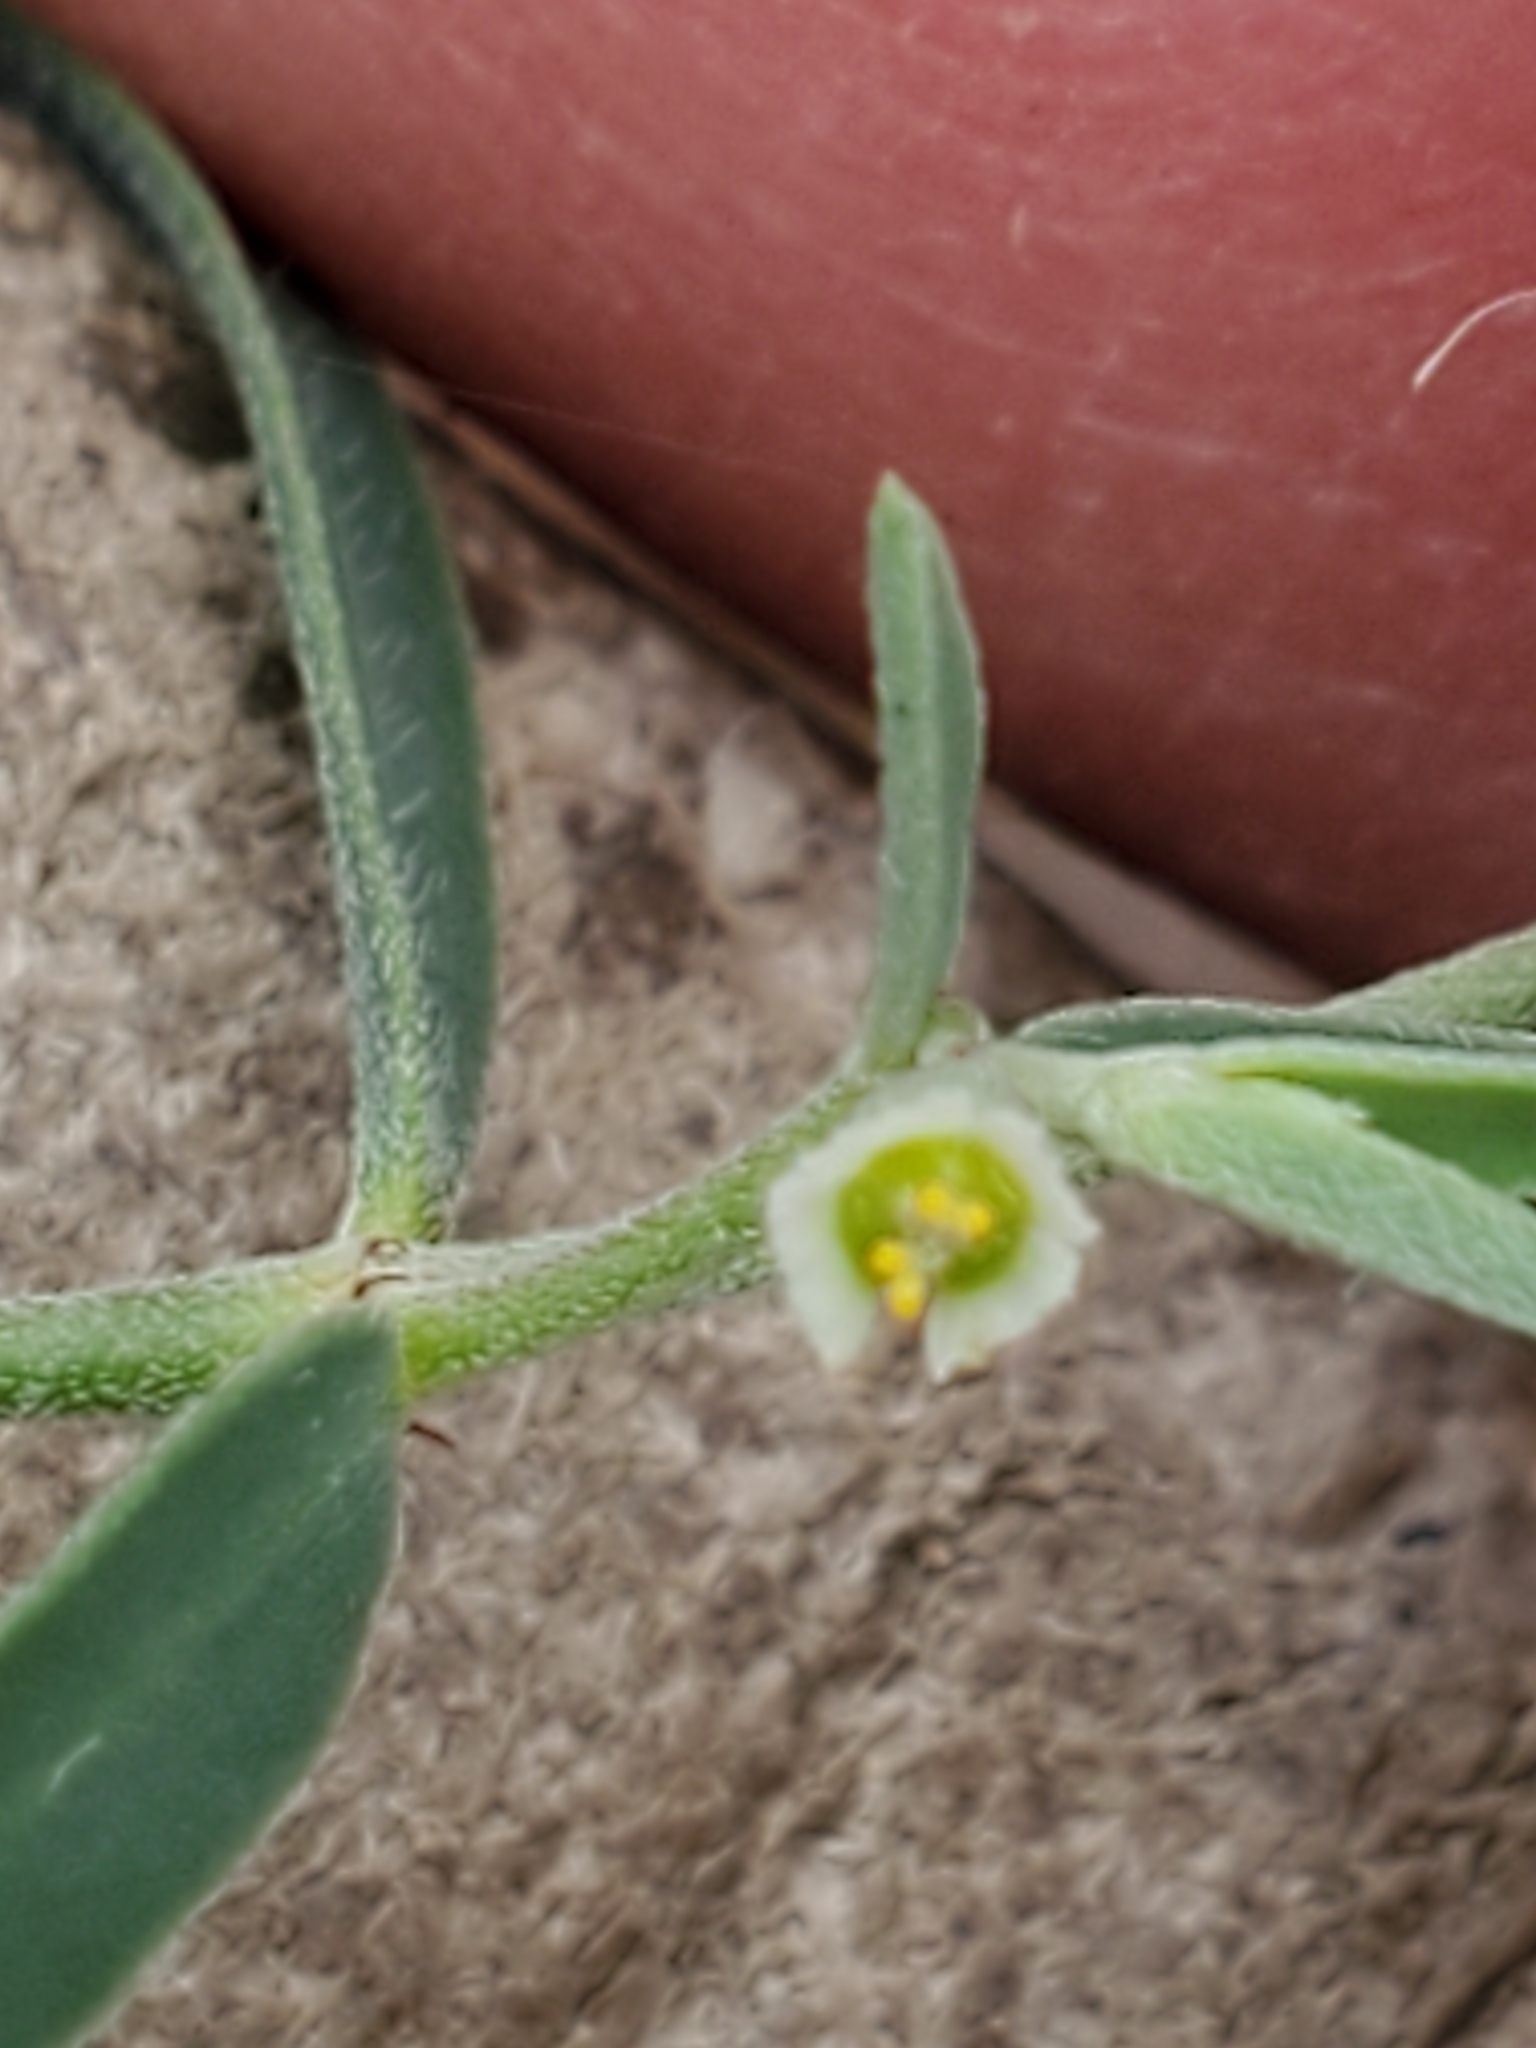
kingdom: Plantae
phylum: Tracheophyta
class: Magnoliopsida
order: Malpighiales
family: Euphorbiaceae
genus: Euphorbia
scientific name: Euphorbia angusta
